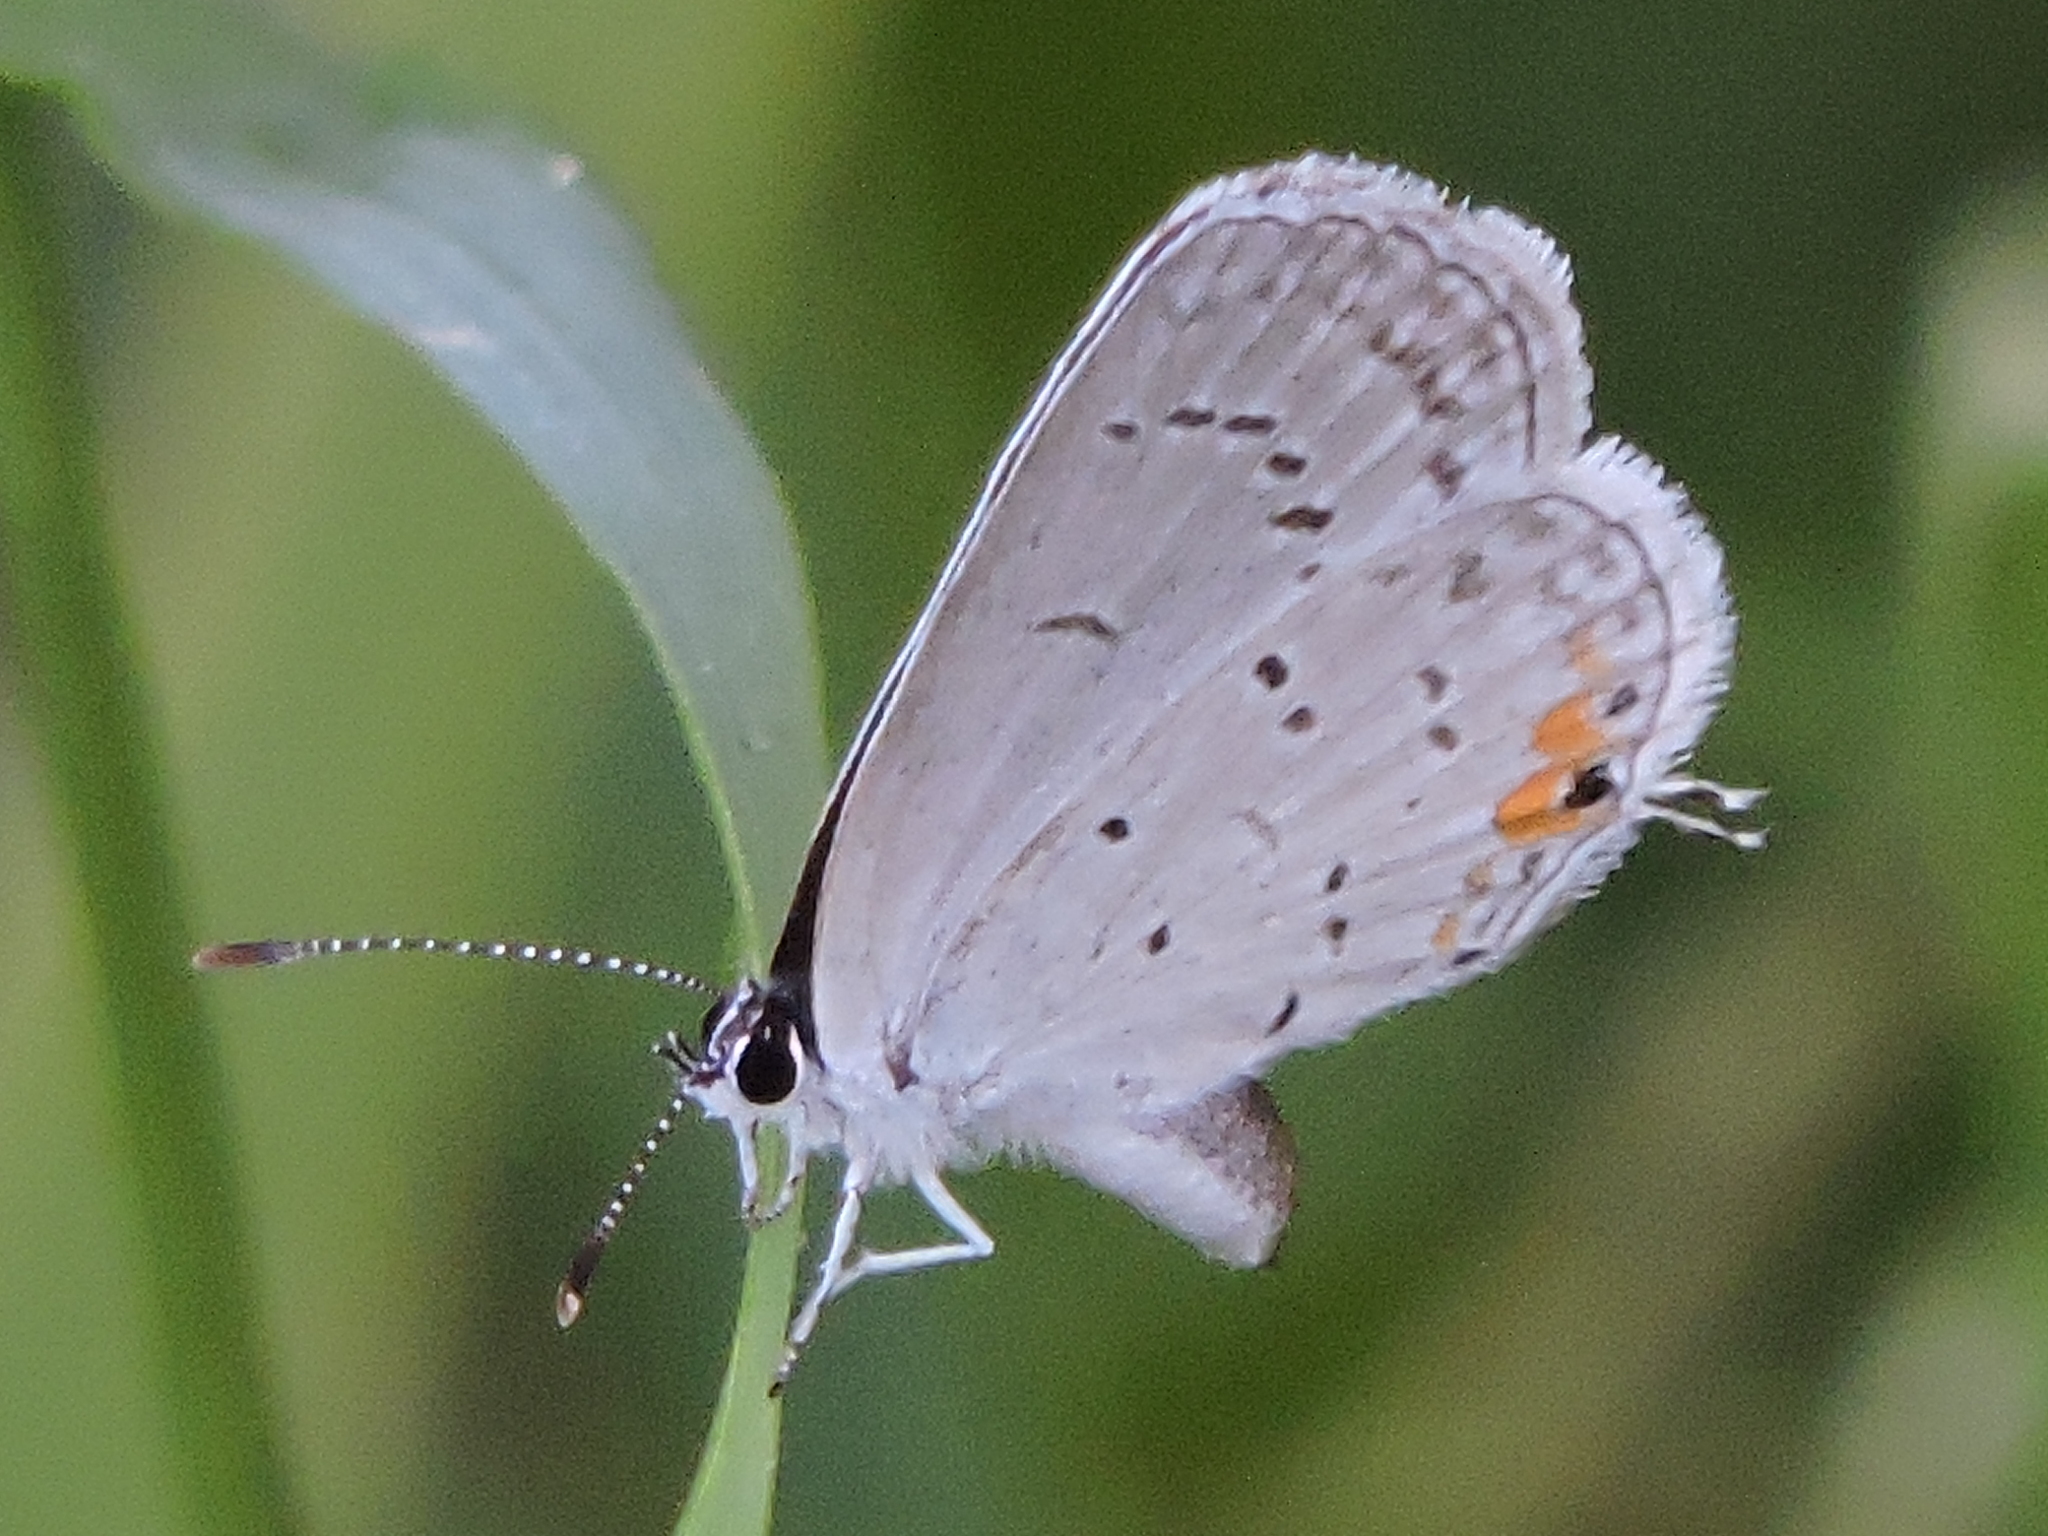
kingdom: Animalia
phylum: Arthropoda
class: Insecta
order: Lepidoptera
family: Lycaenidae
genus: Elkalyce
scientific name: Elkalyce comyntas
